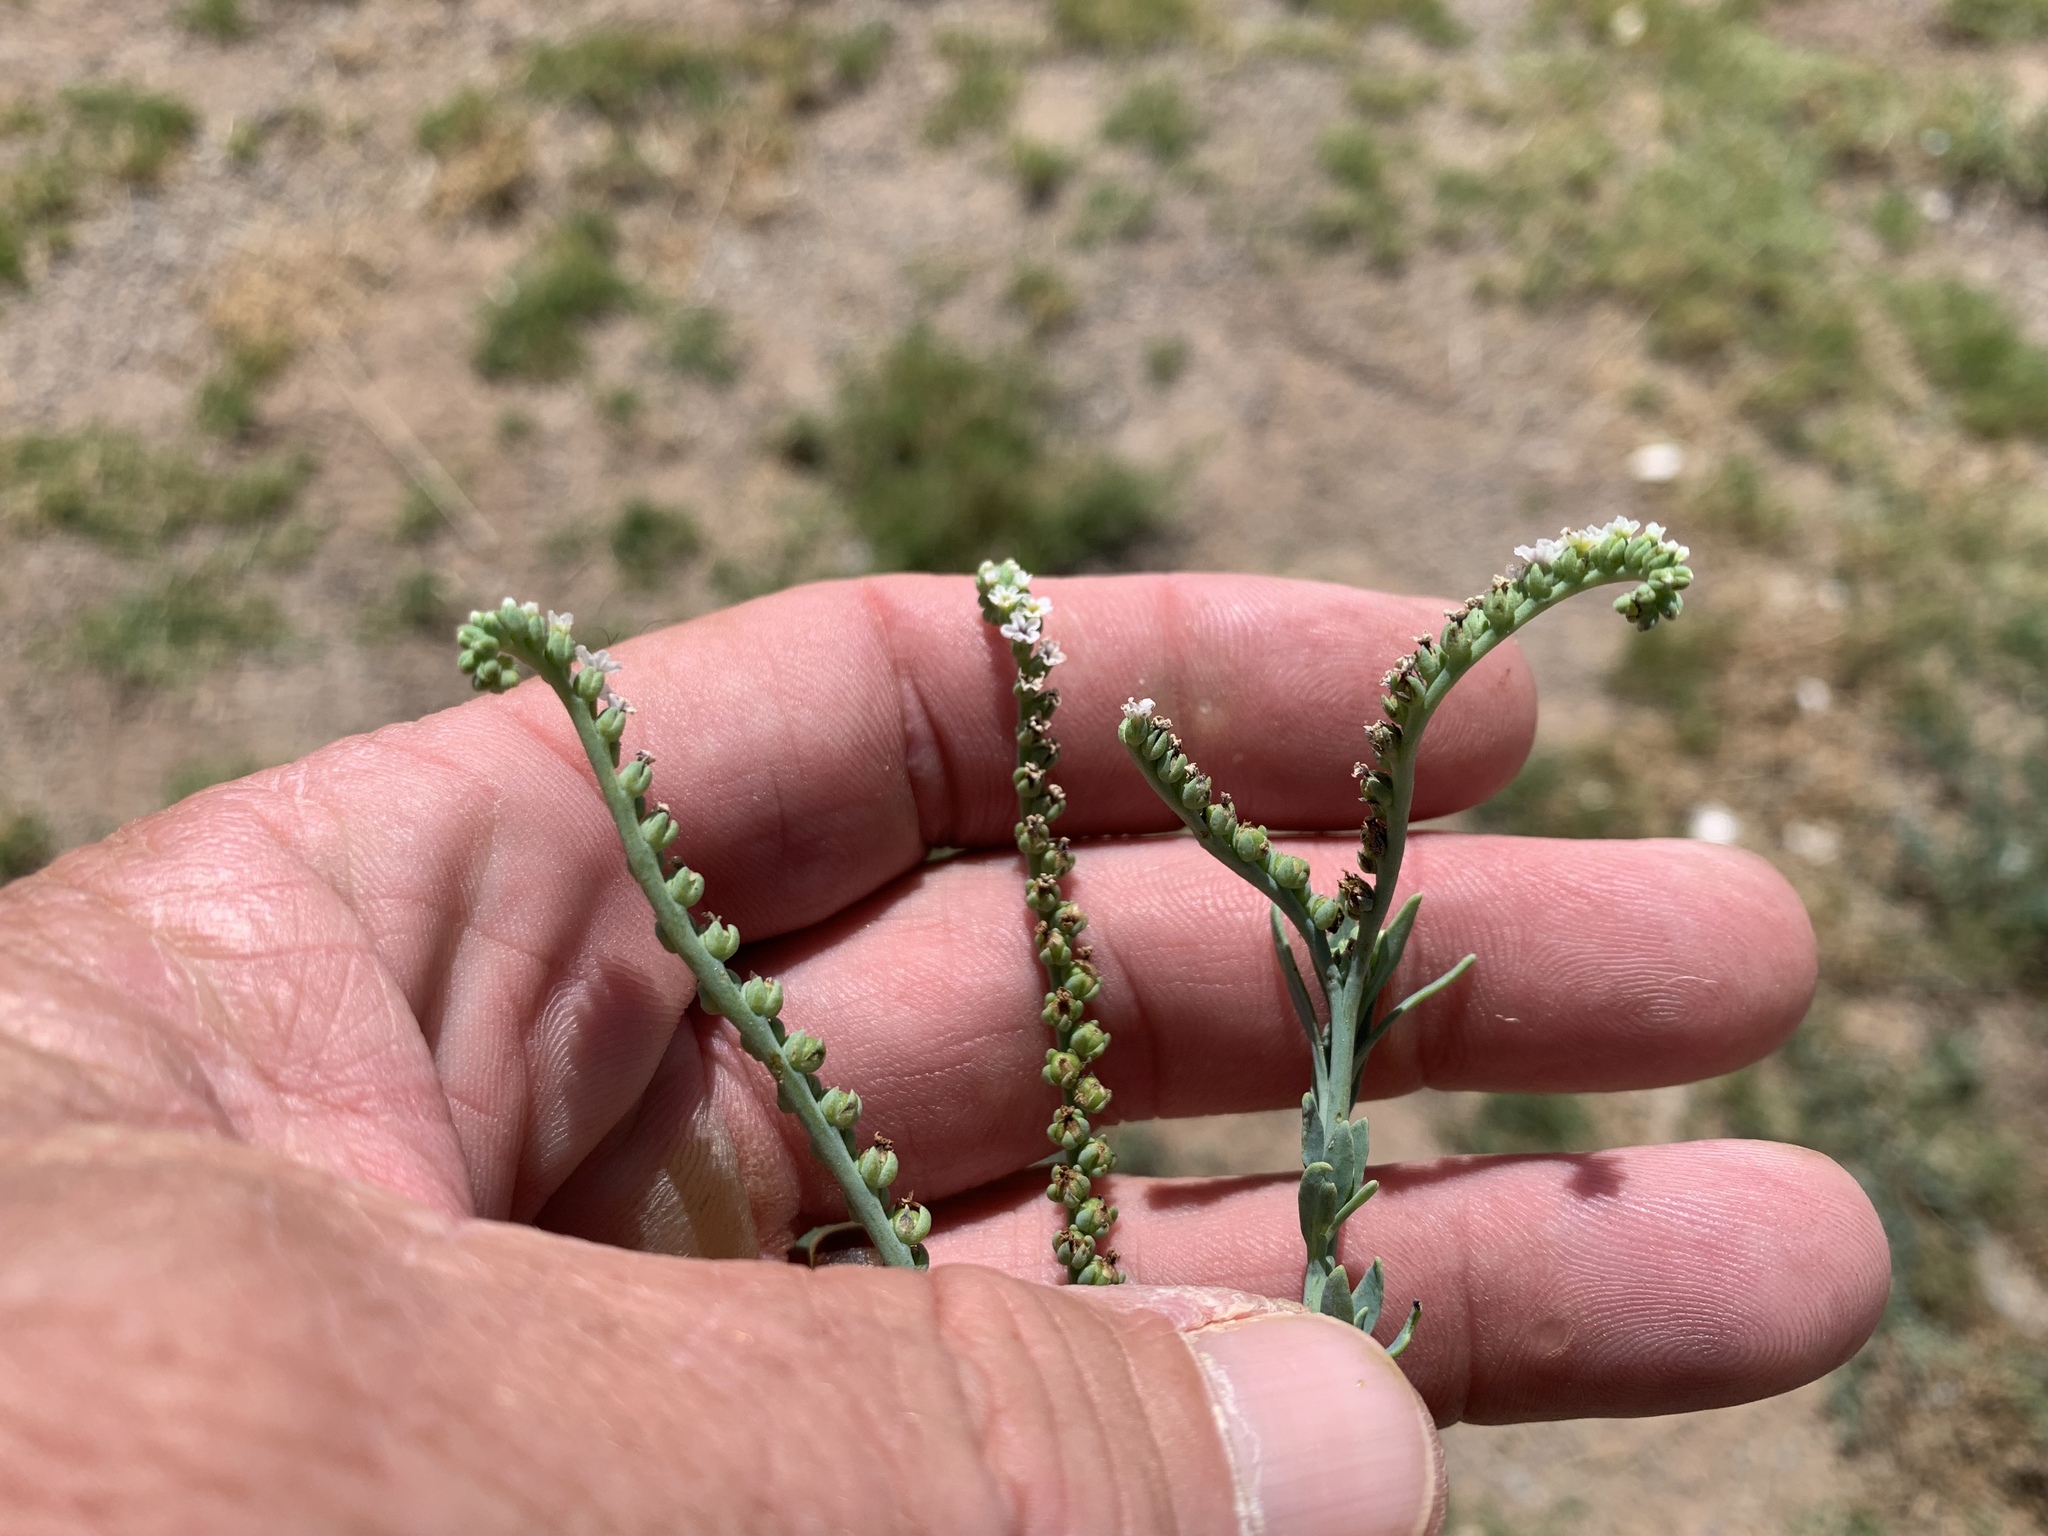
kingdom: Plantae
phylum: Tracheophyta
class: Magnoliopsida
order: Boraginales
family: Heliotropiaceae
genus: Heliotropium
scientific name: Heliotropium curassavicum
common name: Seaside heliotrope
